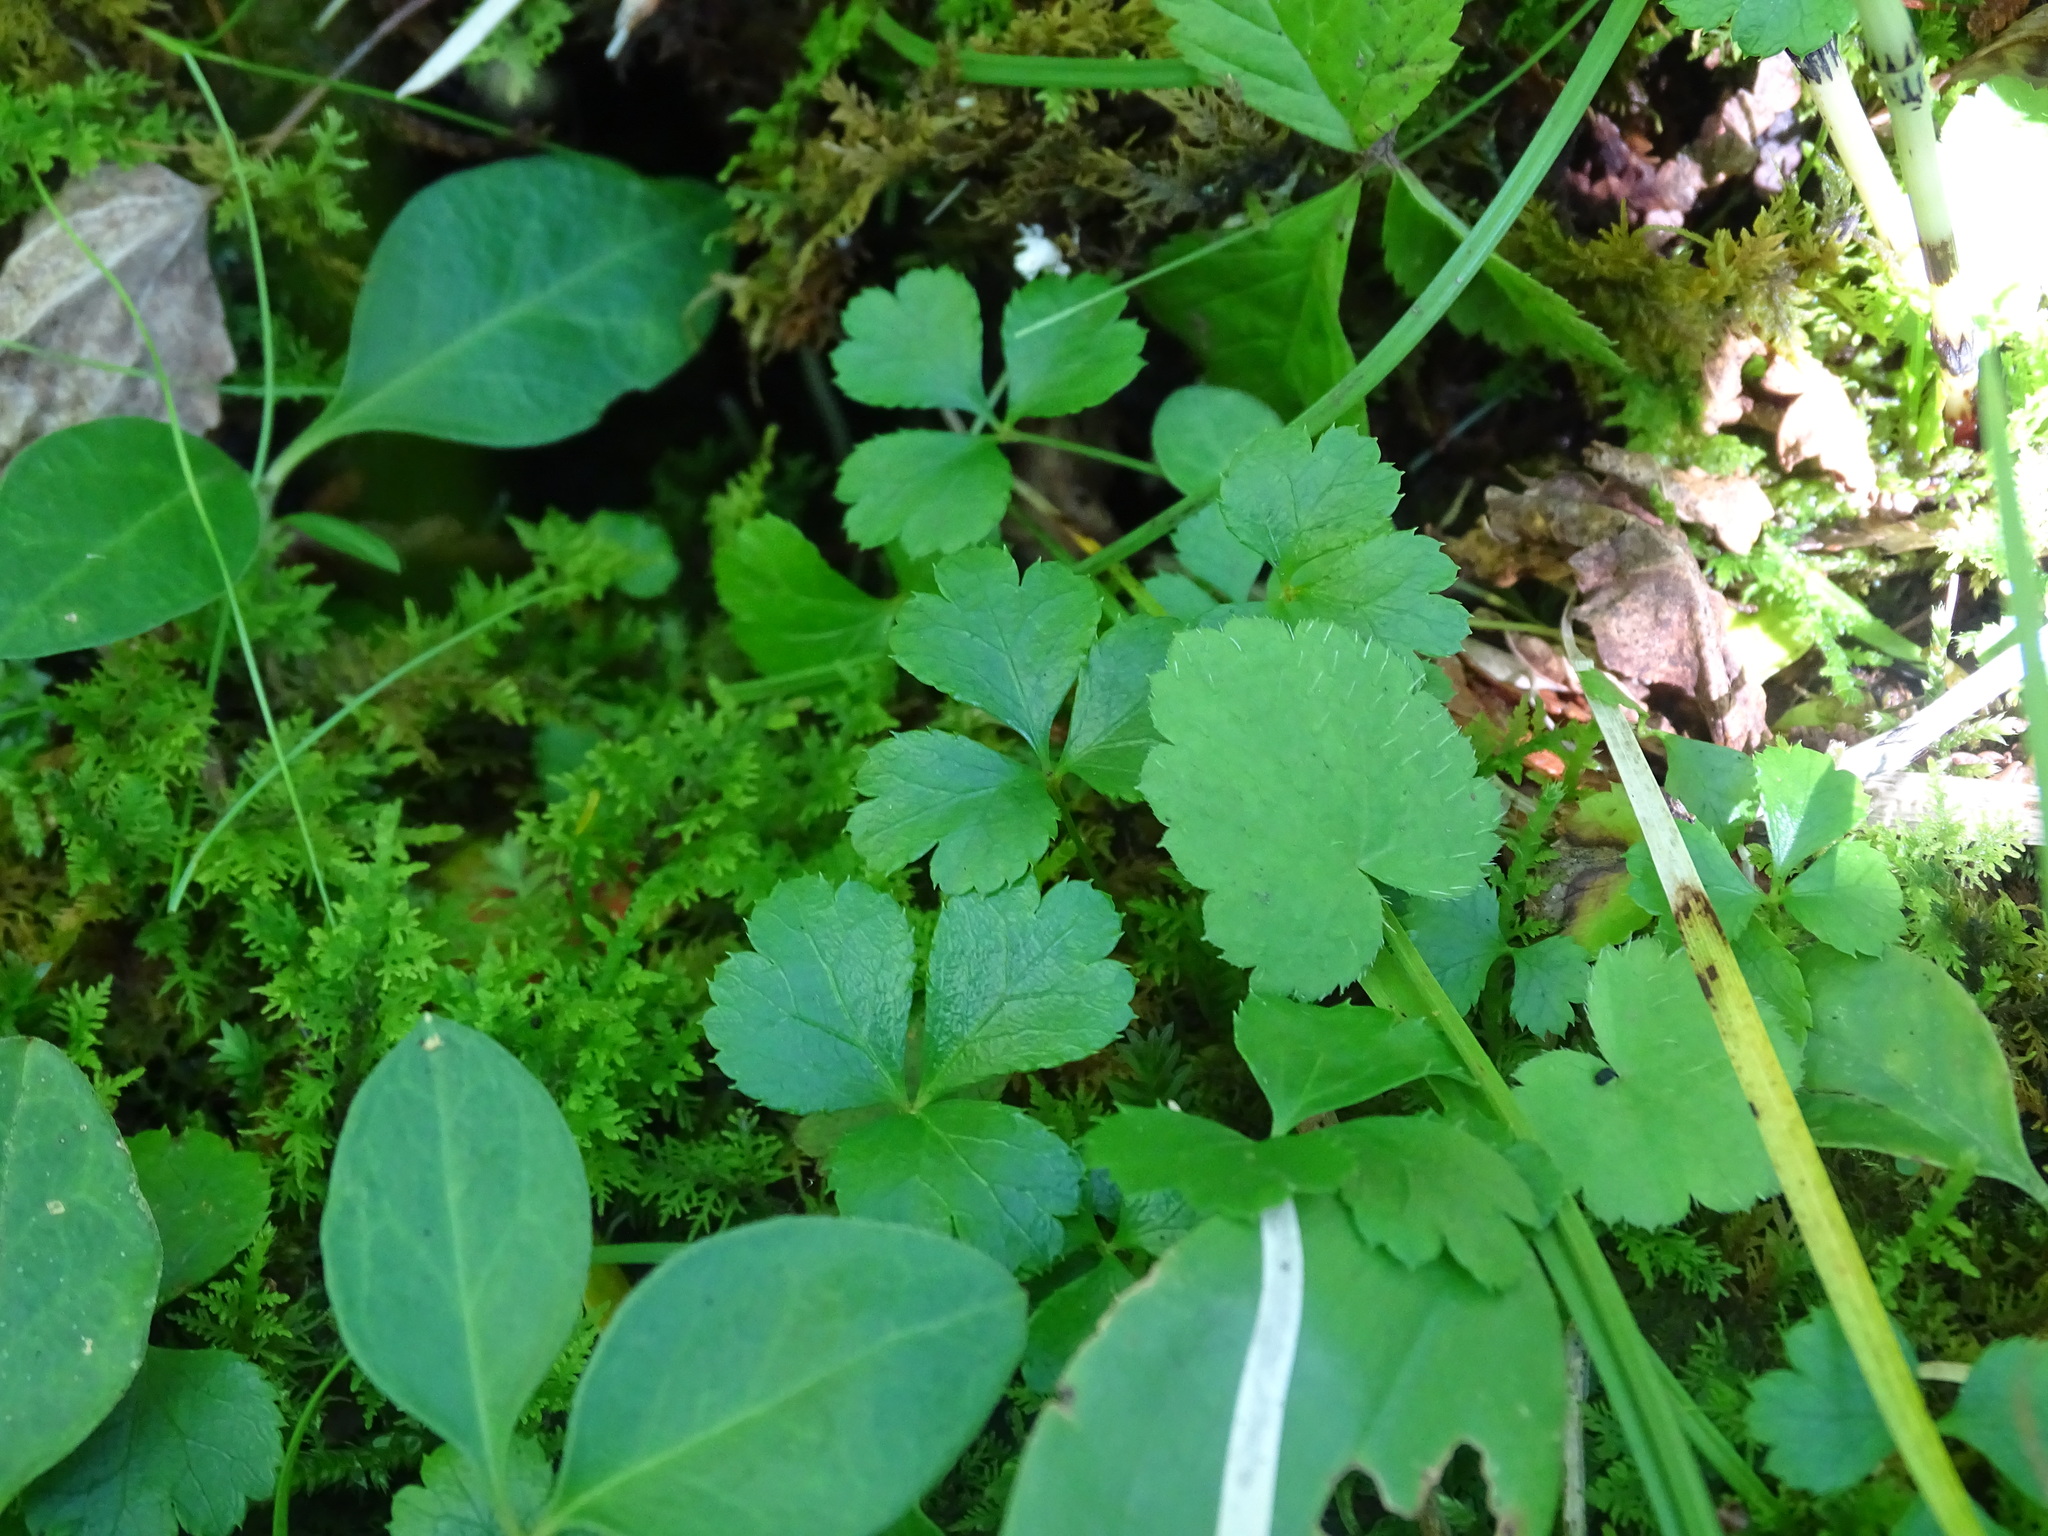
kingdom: Plantae
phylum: Tracheophyta
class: Magnoliopsida
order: Ranunculales
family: Ranunculaceae
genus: Coptis
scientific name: Coptis trifolia
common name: Canker-root
